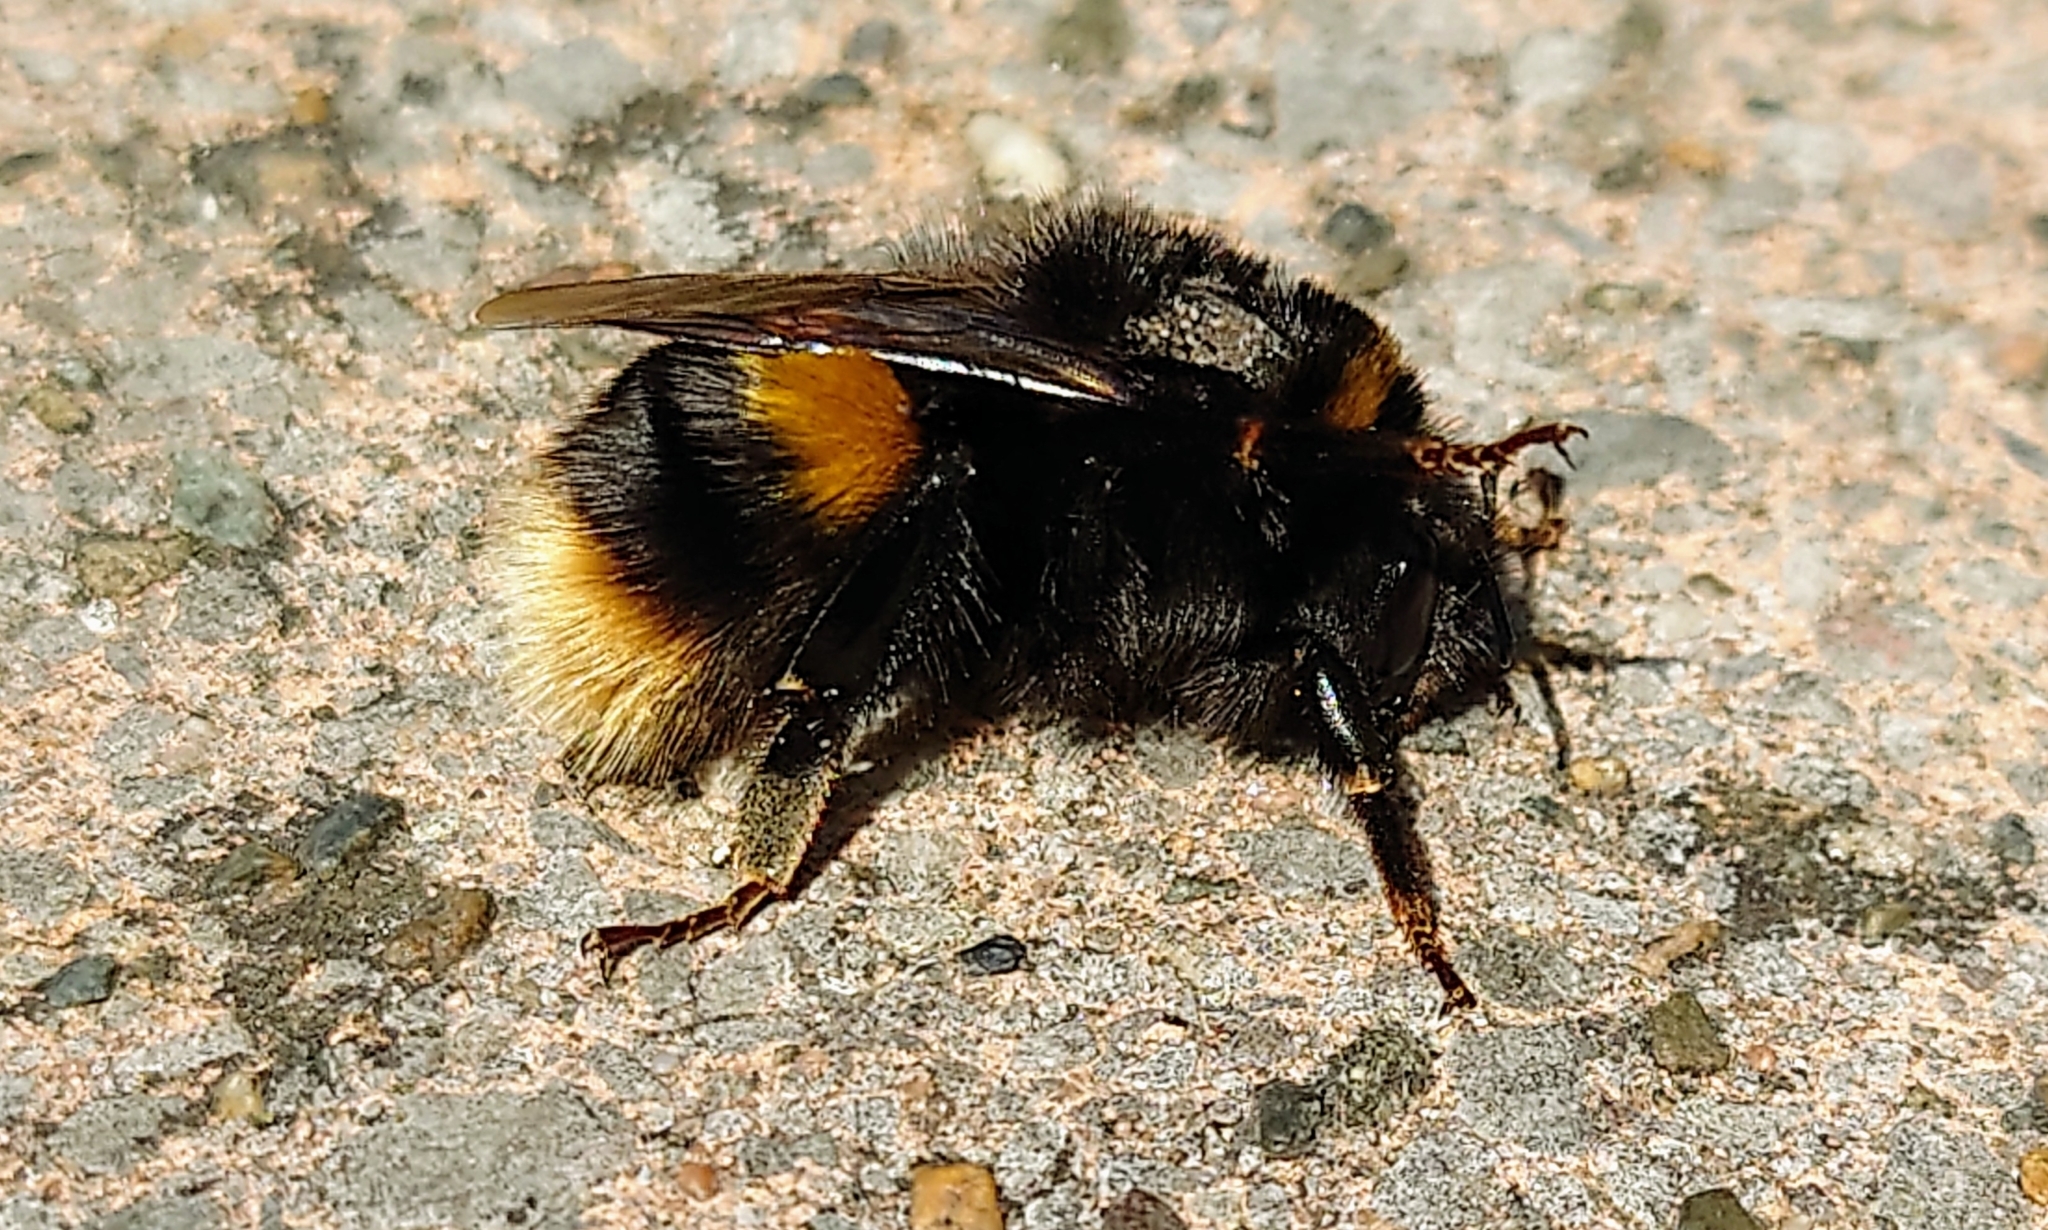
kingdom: Animalia
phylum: Arthropoda
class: Insecta
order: Hymenoptera
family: Apidae
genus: Bombus
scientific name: Bombus terrestris
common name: Buff-tailed bumblebee
